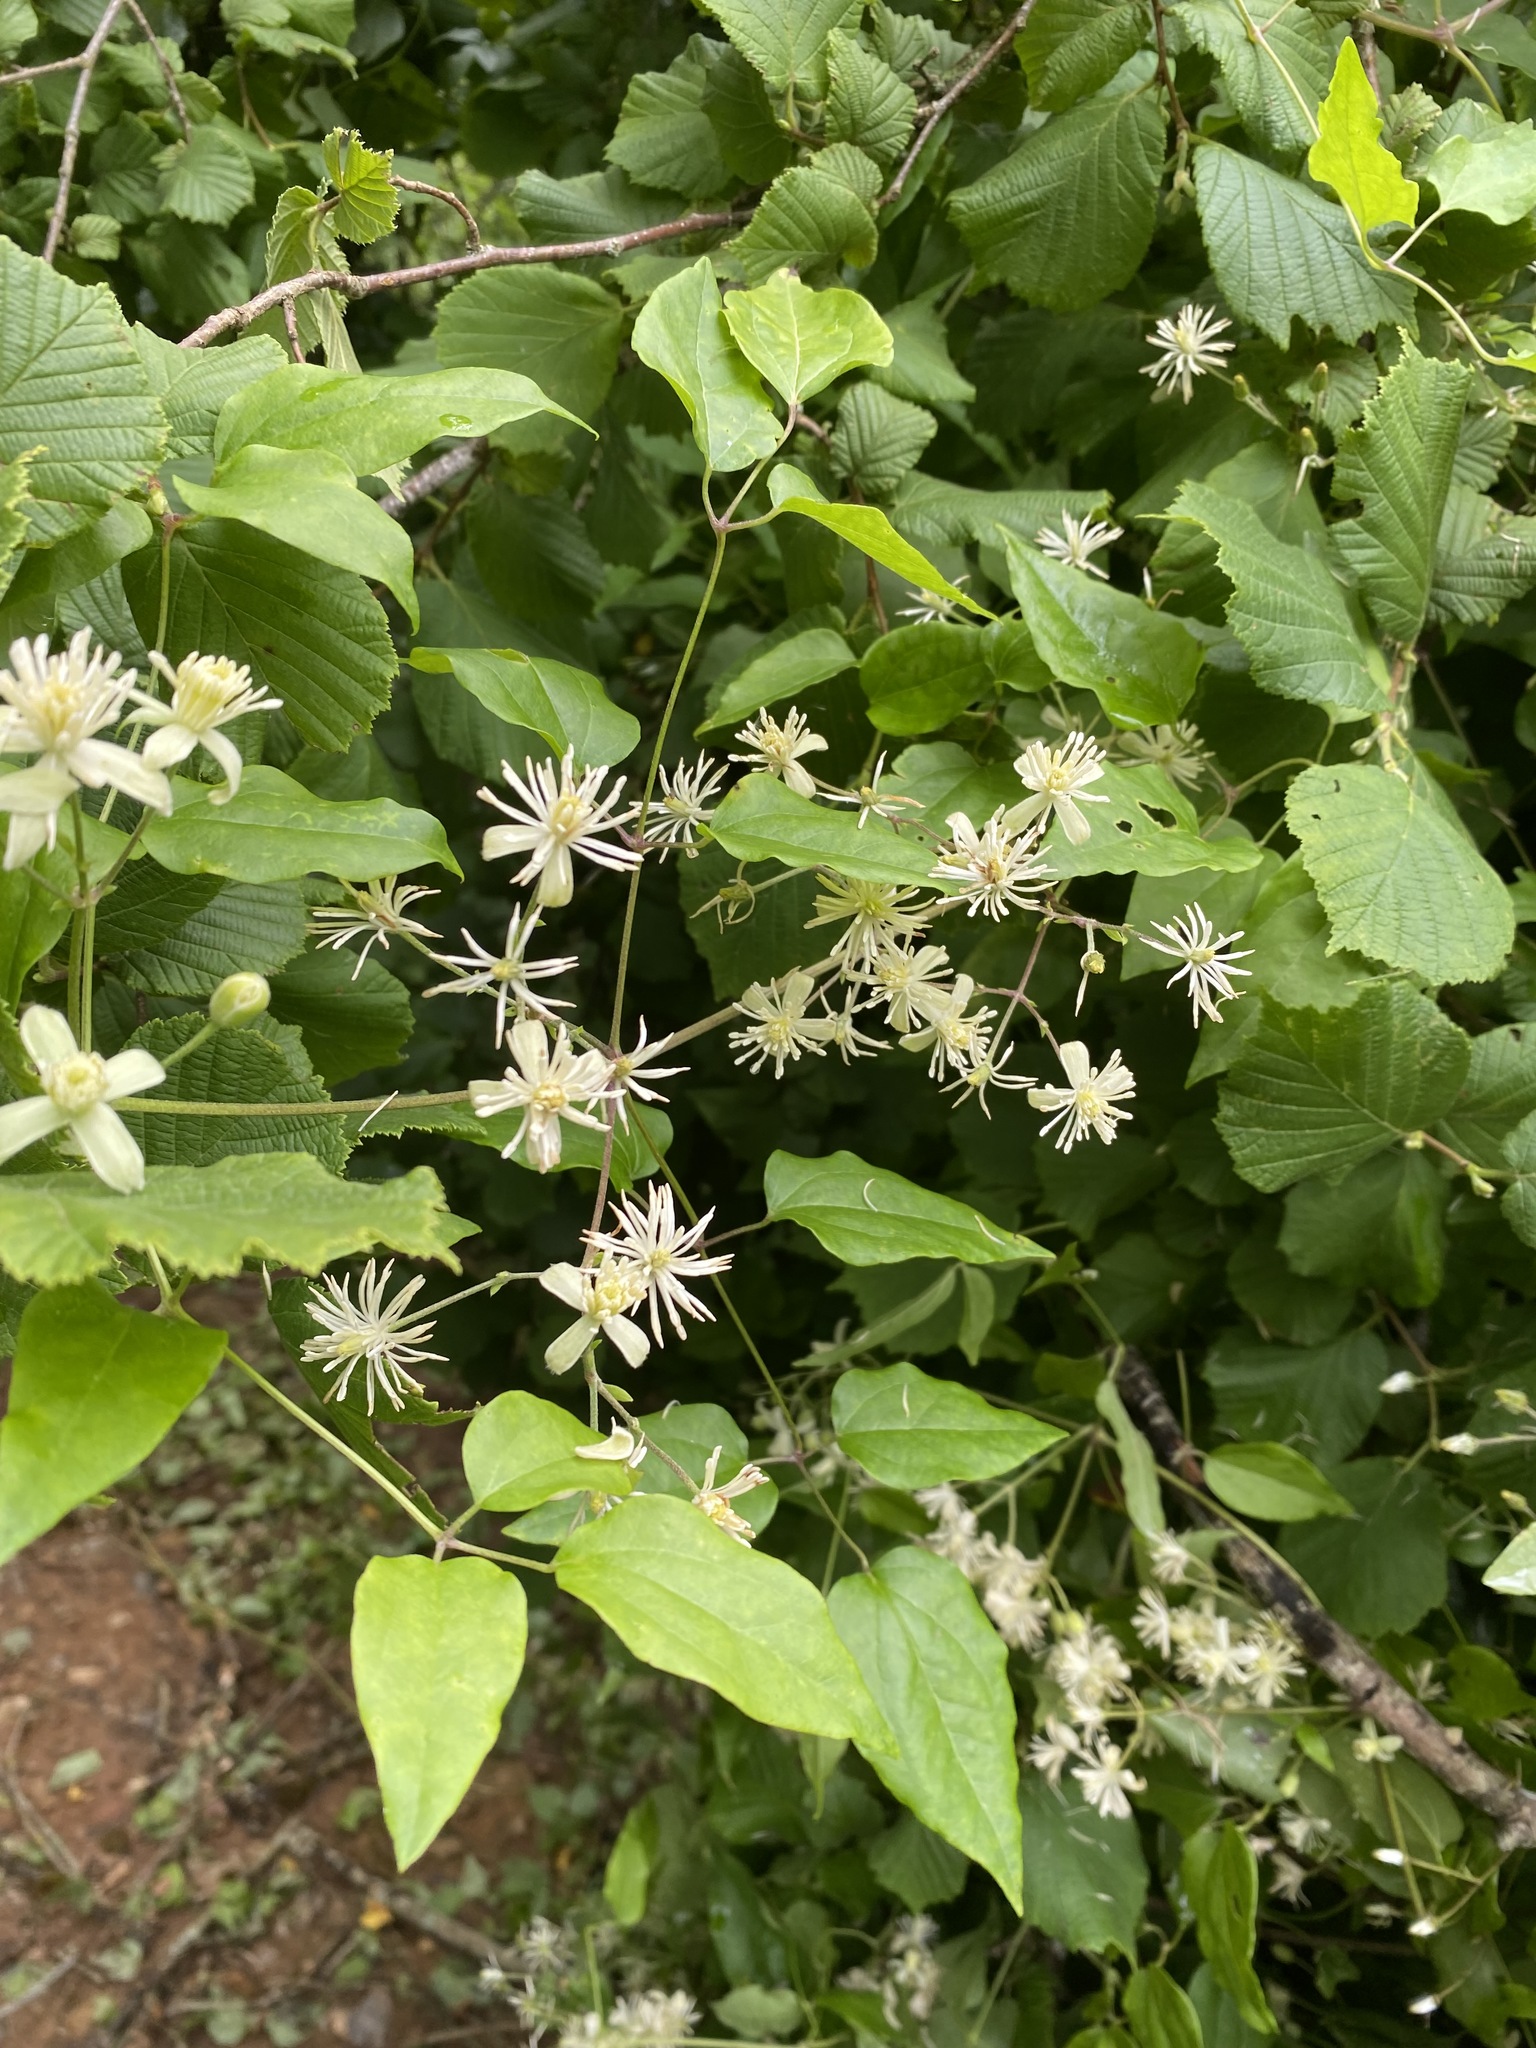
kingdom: Plantae
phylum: Tracheophyta
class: Magnoliopsida
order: Ranunculales
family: Ranunculaceae
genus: Clematis
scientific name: Clematis vitalba
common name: Evergreen clematis
